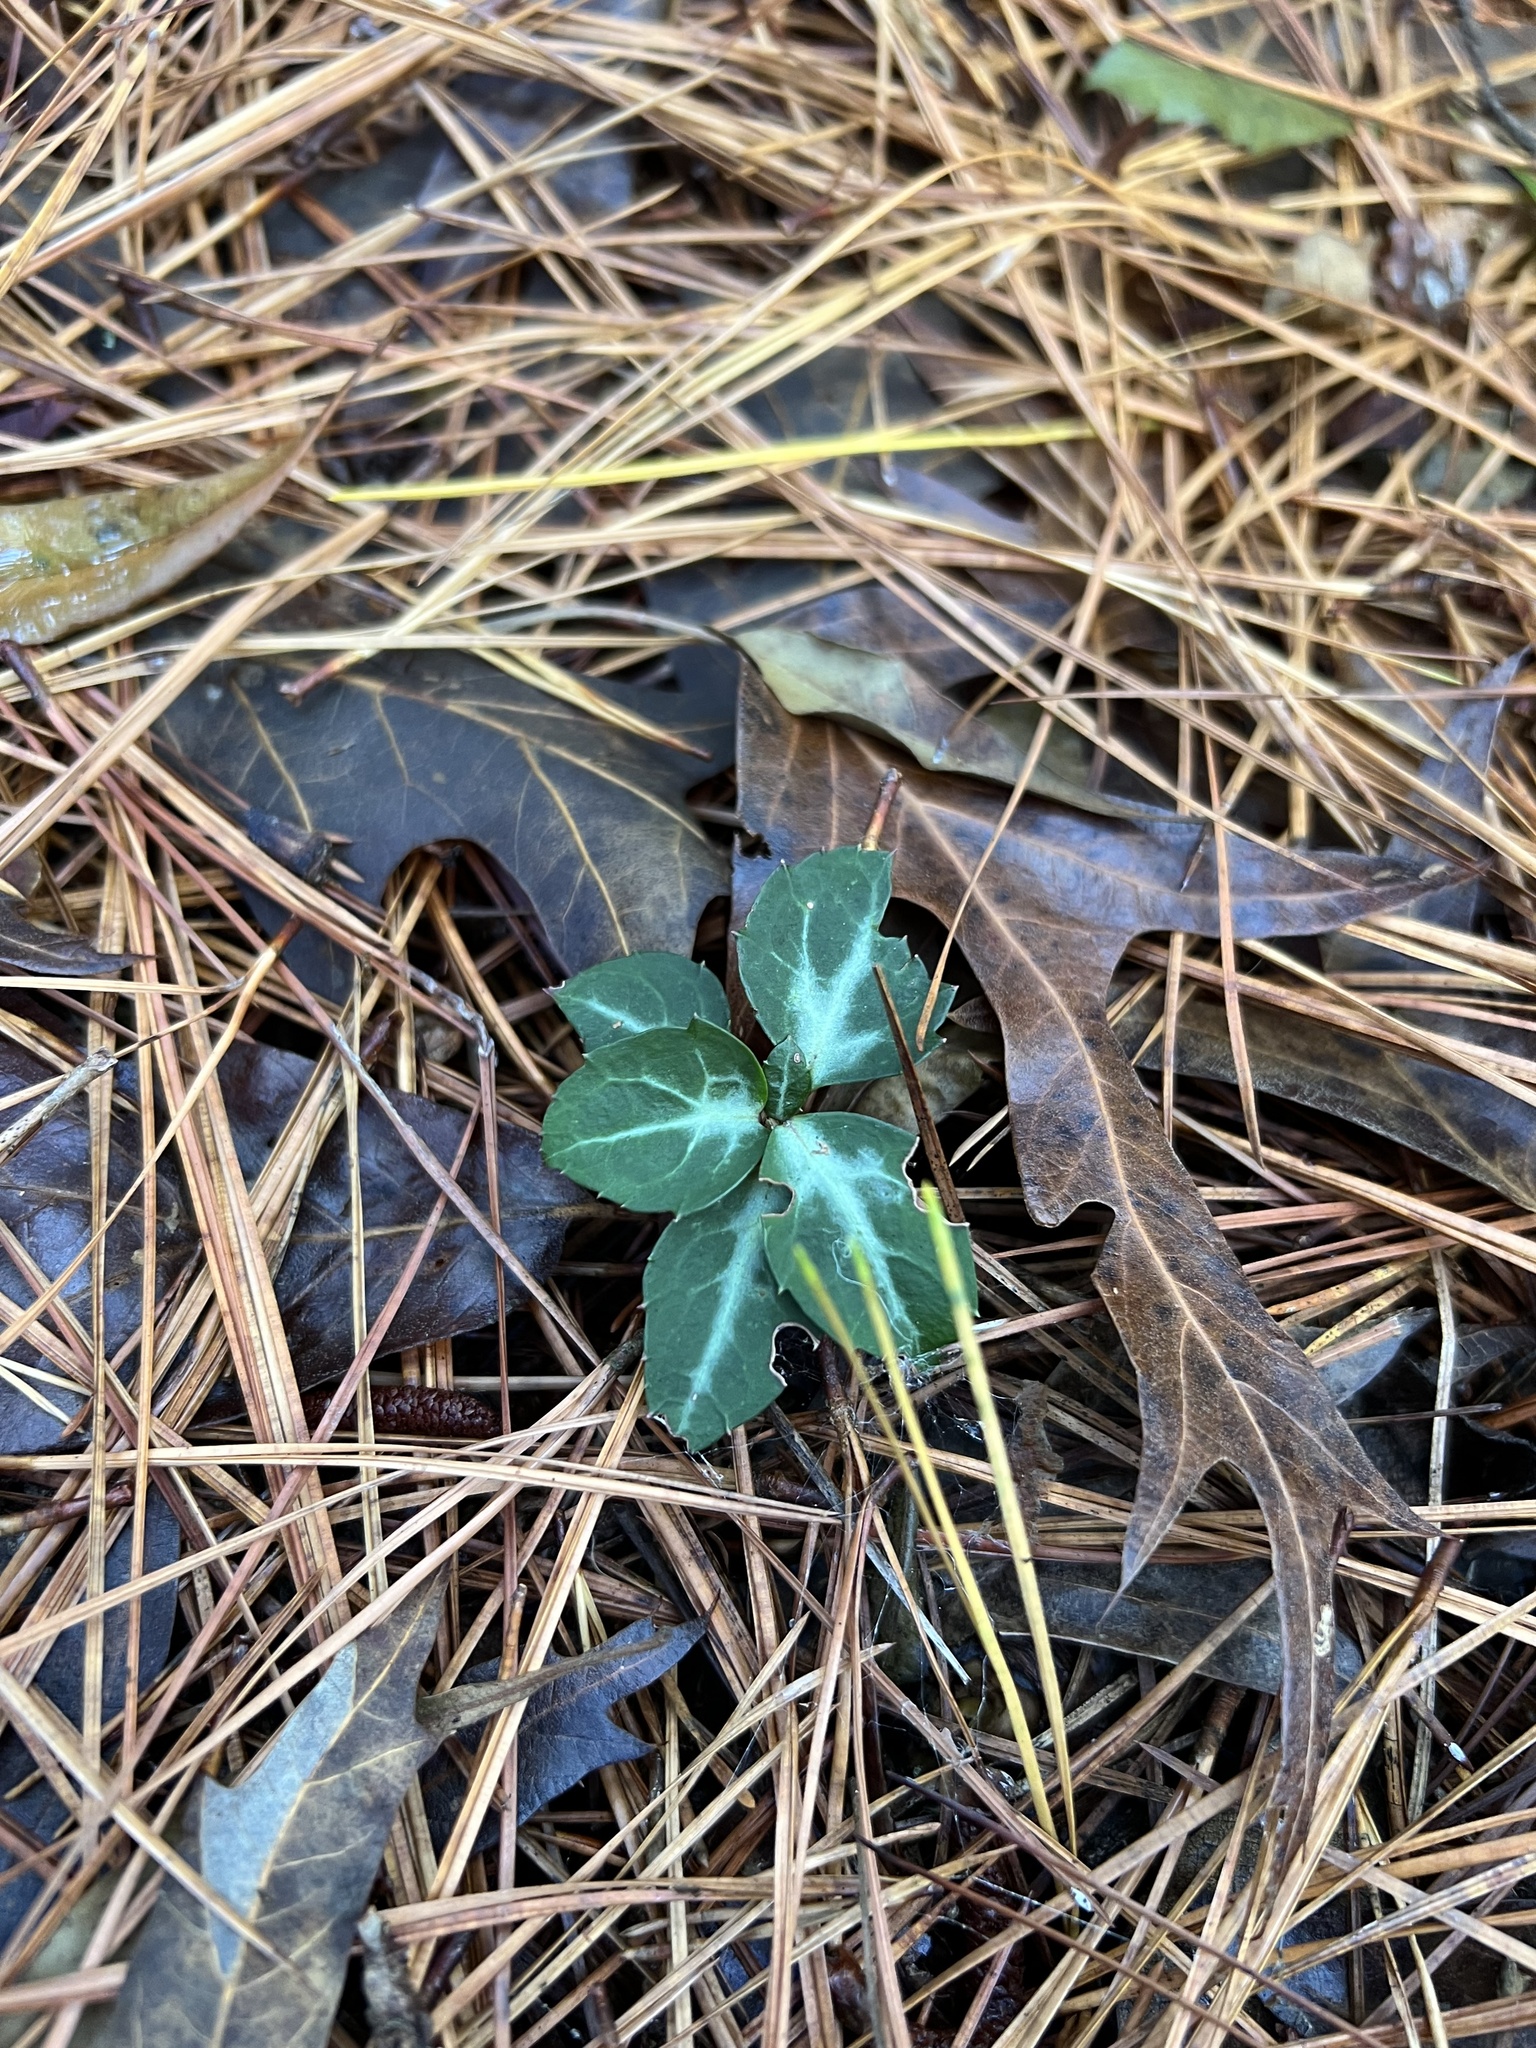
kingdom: Plantae
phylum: Tracheophyta
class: Magnoliopsida
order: Ericales
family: Ericaceae
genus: Chimaphila
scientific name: Chimaphila maculata
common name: Spotted pipsissewa
